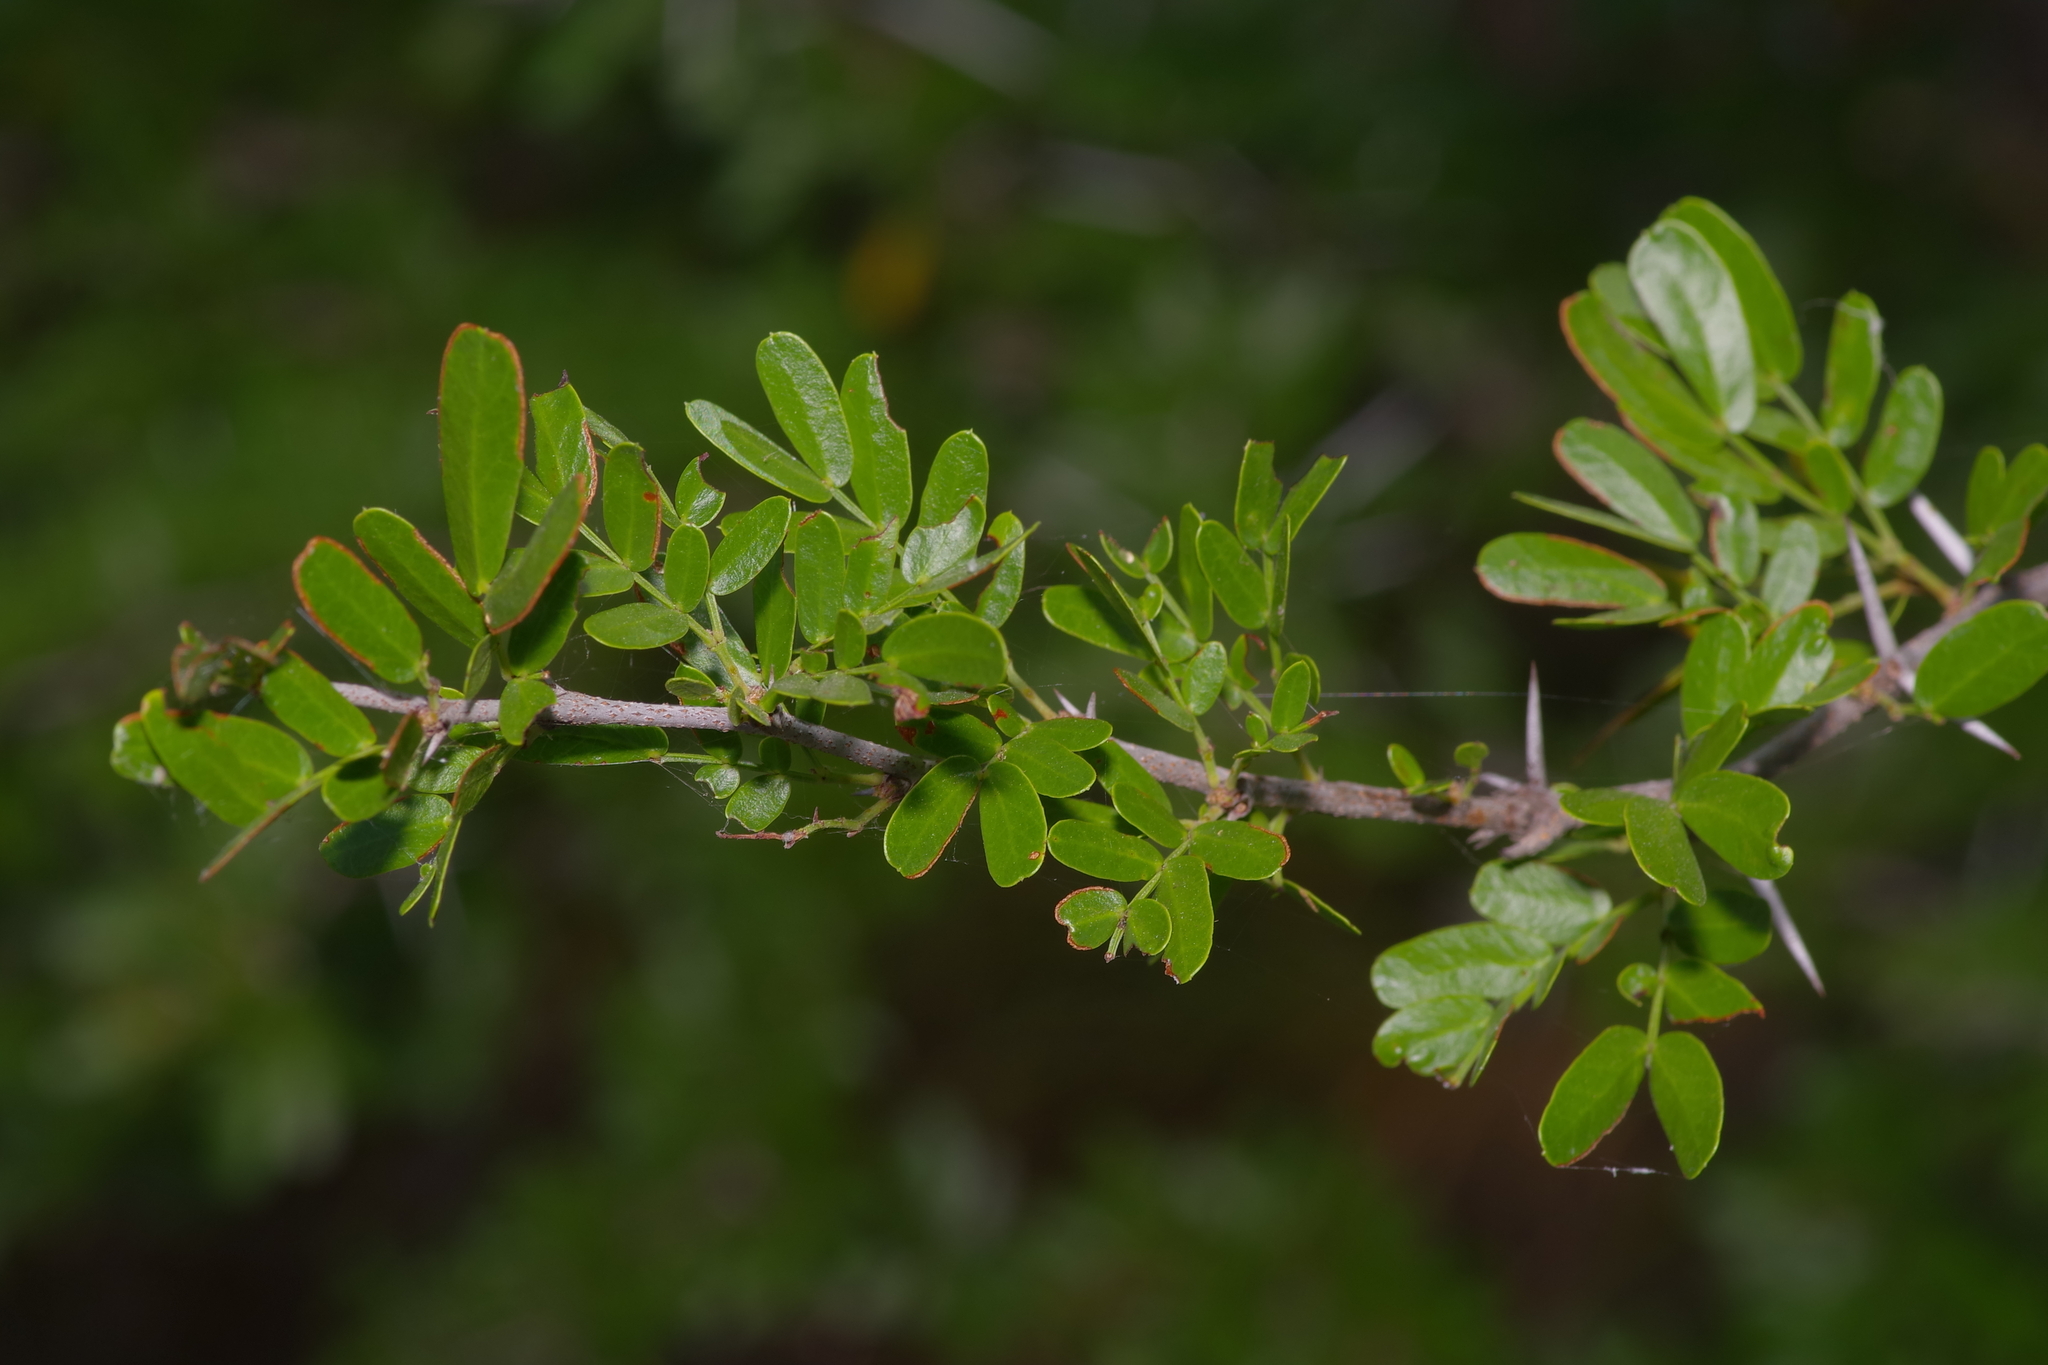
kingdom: Plantae
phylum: Tracheophyta
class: Magnoliopsida
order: Fabales
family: Fabaceae
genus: Vachellia
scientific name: Vachellia rigidula
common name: Blackbrush
